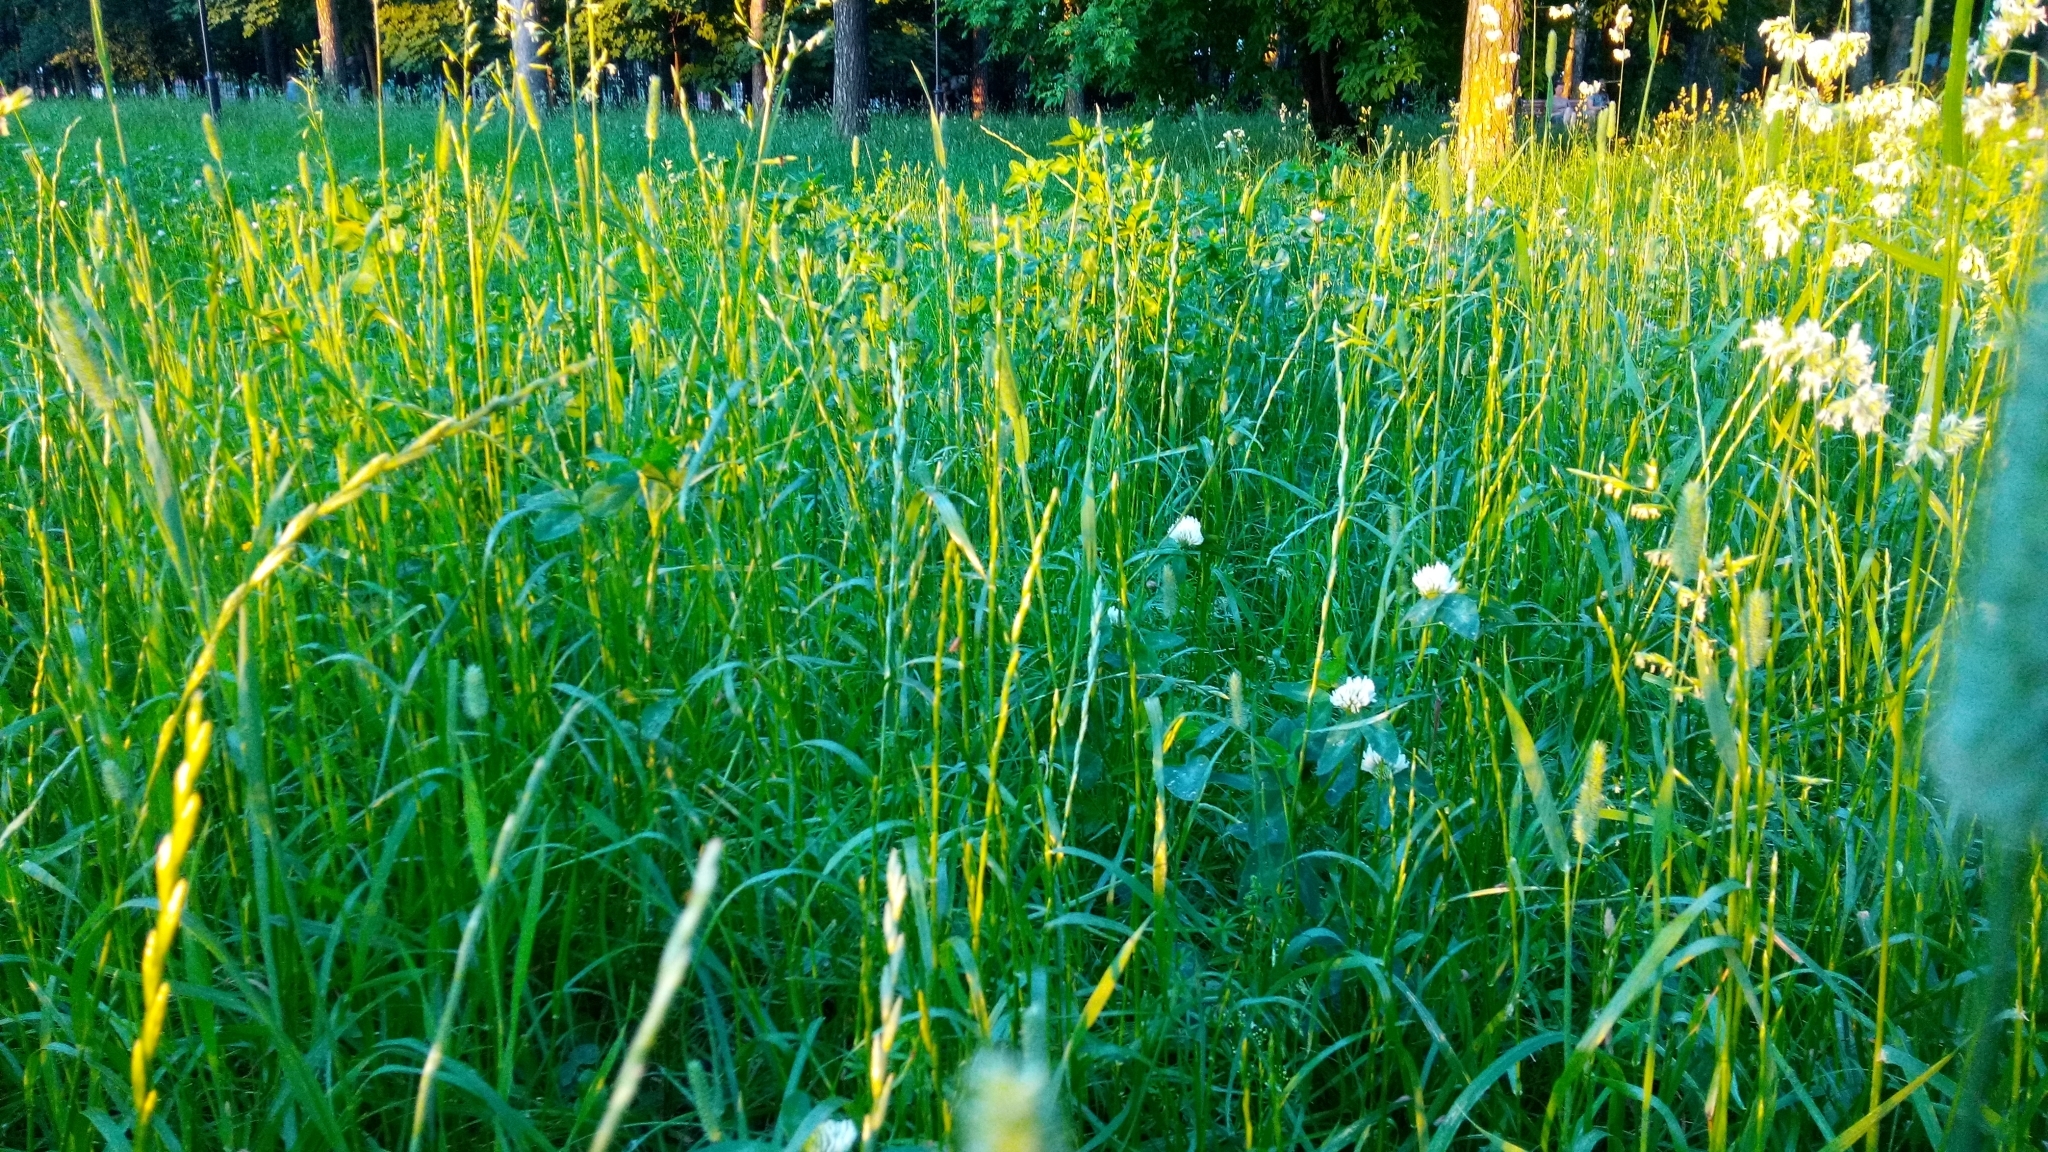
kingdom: Plantae
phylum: Tracheophyta
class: Magnoliopsida
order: Fabales
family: Fabaceae
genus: Trifolium
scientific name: Trifolium pratense
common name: Red clover
